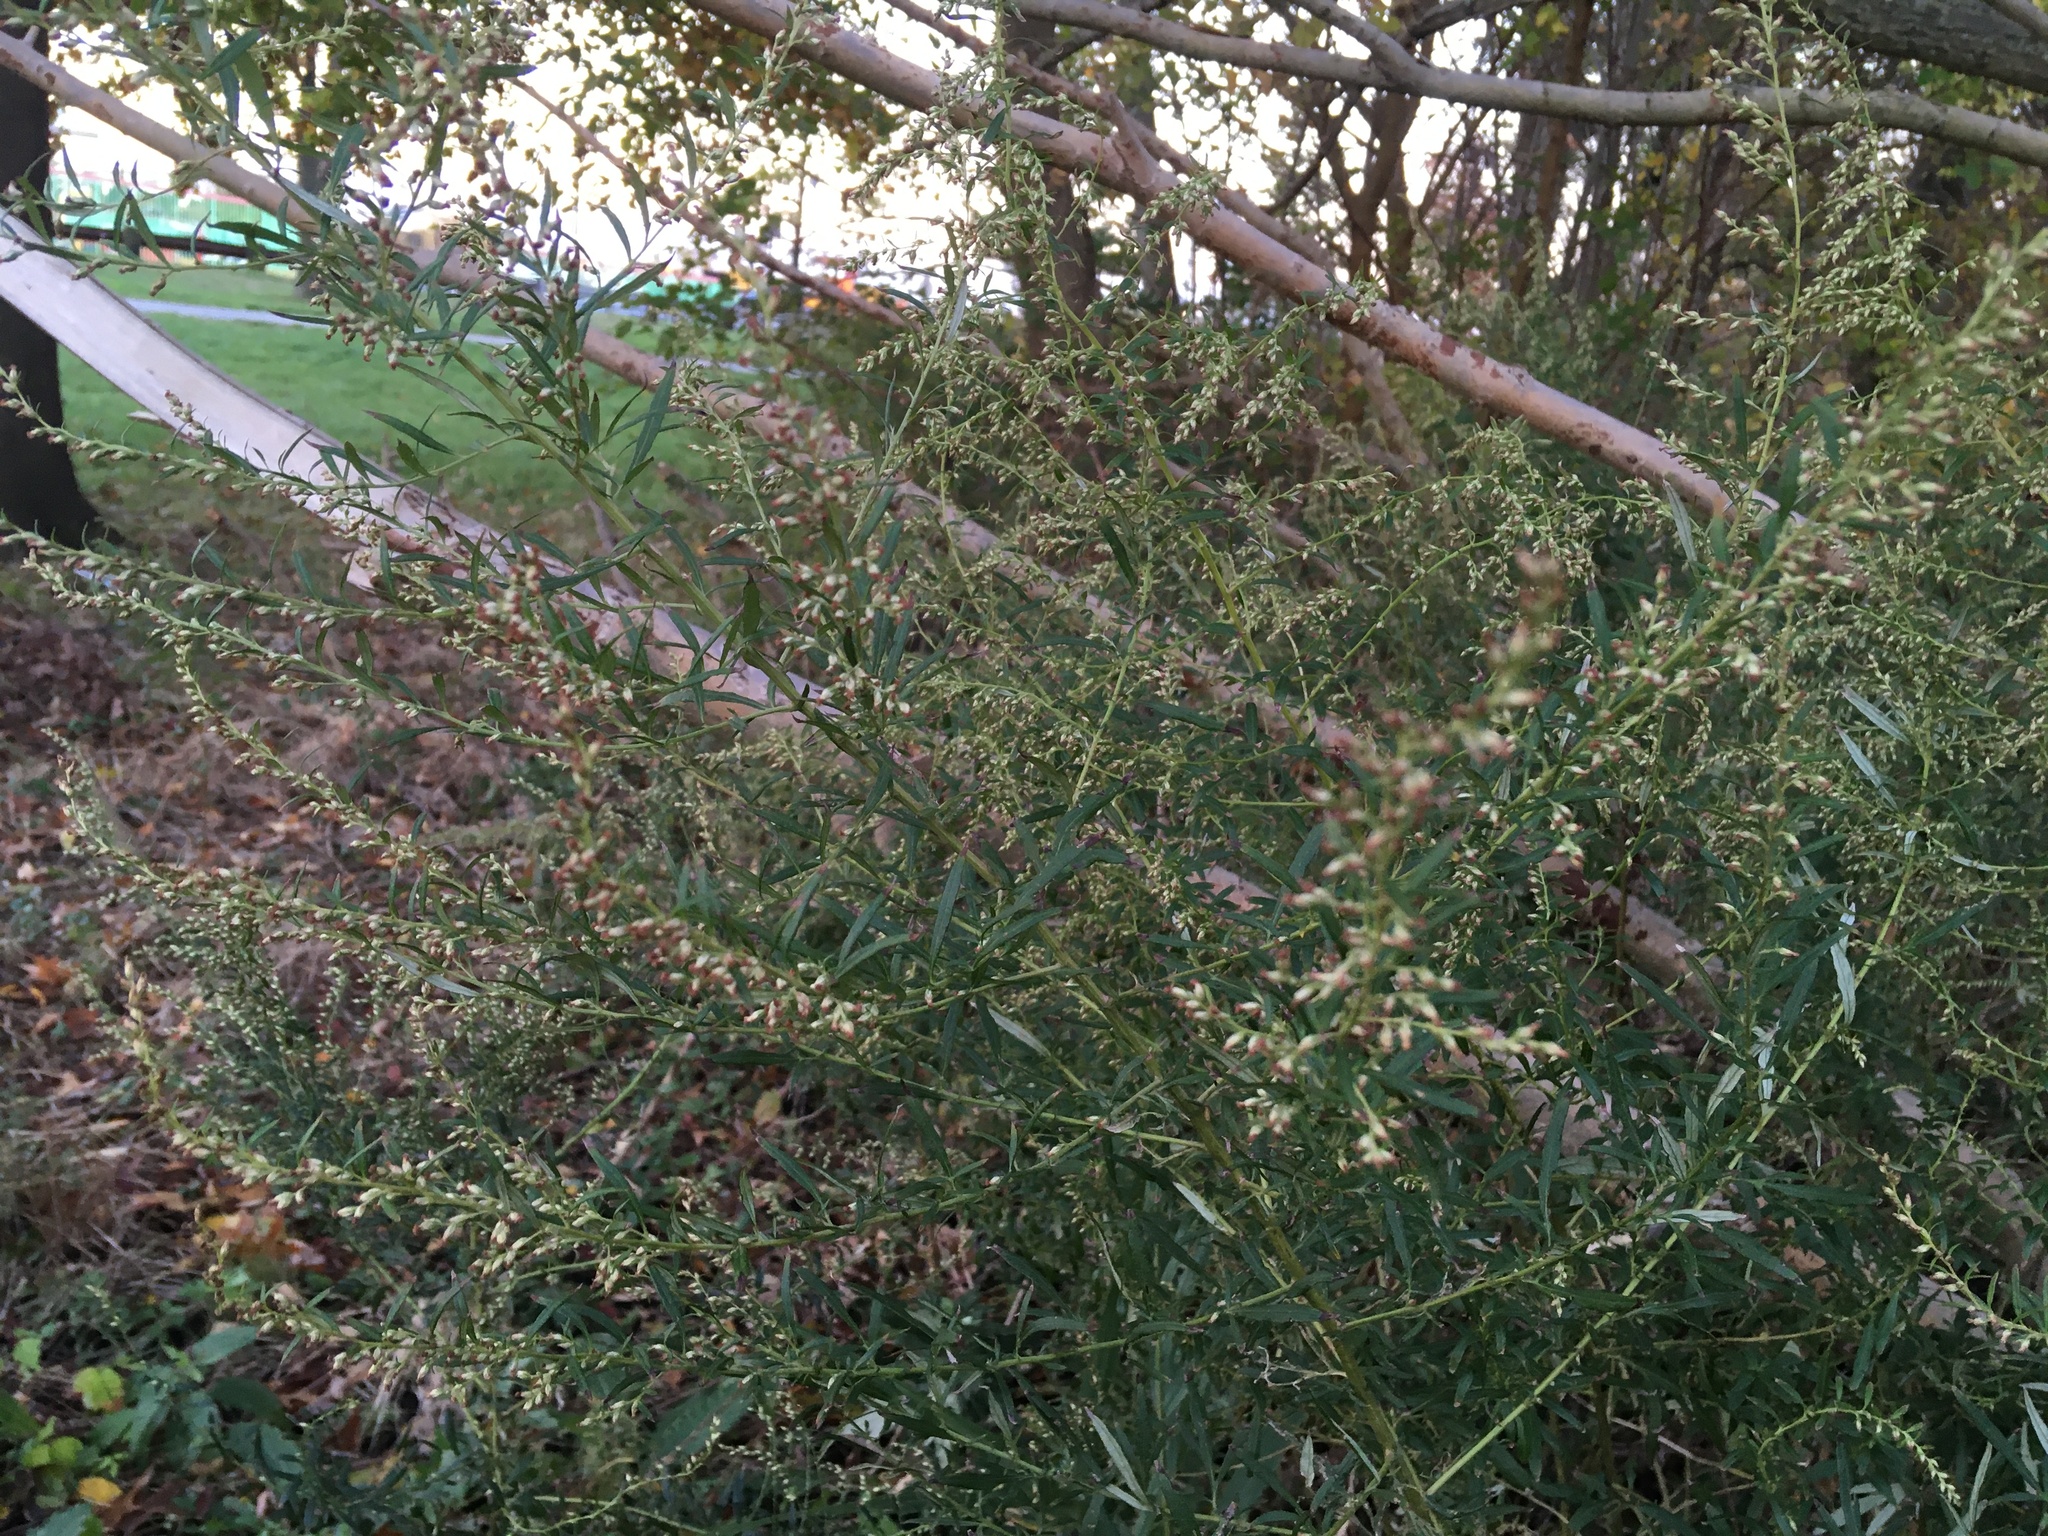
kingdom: Plantae
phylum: Tracheophyta
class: Magnoliopsida
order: Asterales
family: Asteraceae
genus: Artemisia
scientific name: Artemisia vulgaris
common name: Mugwort
